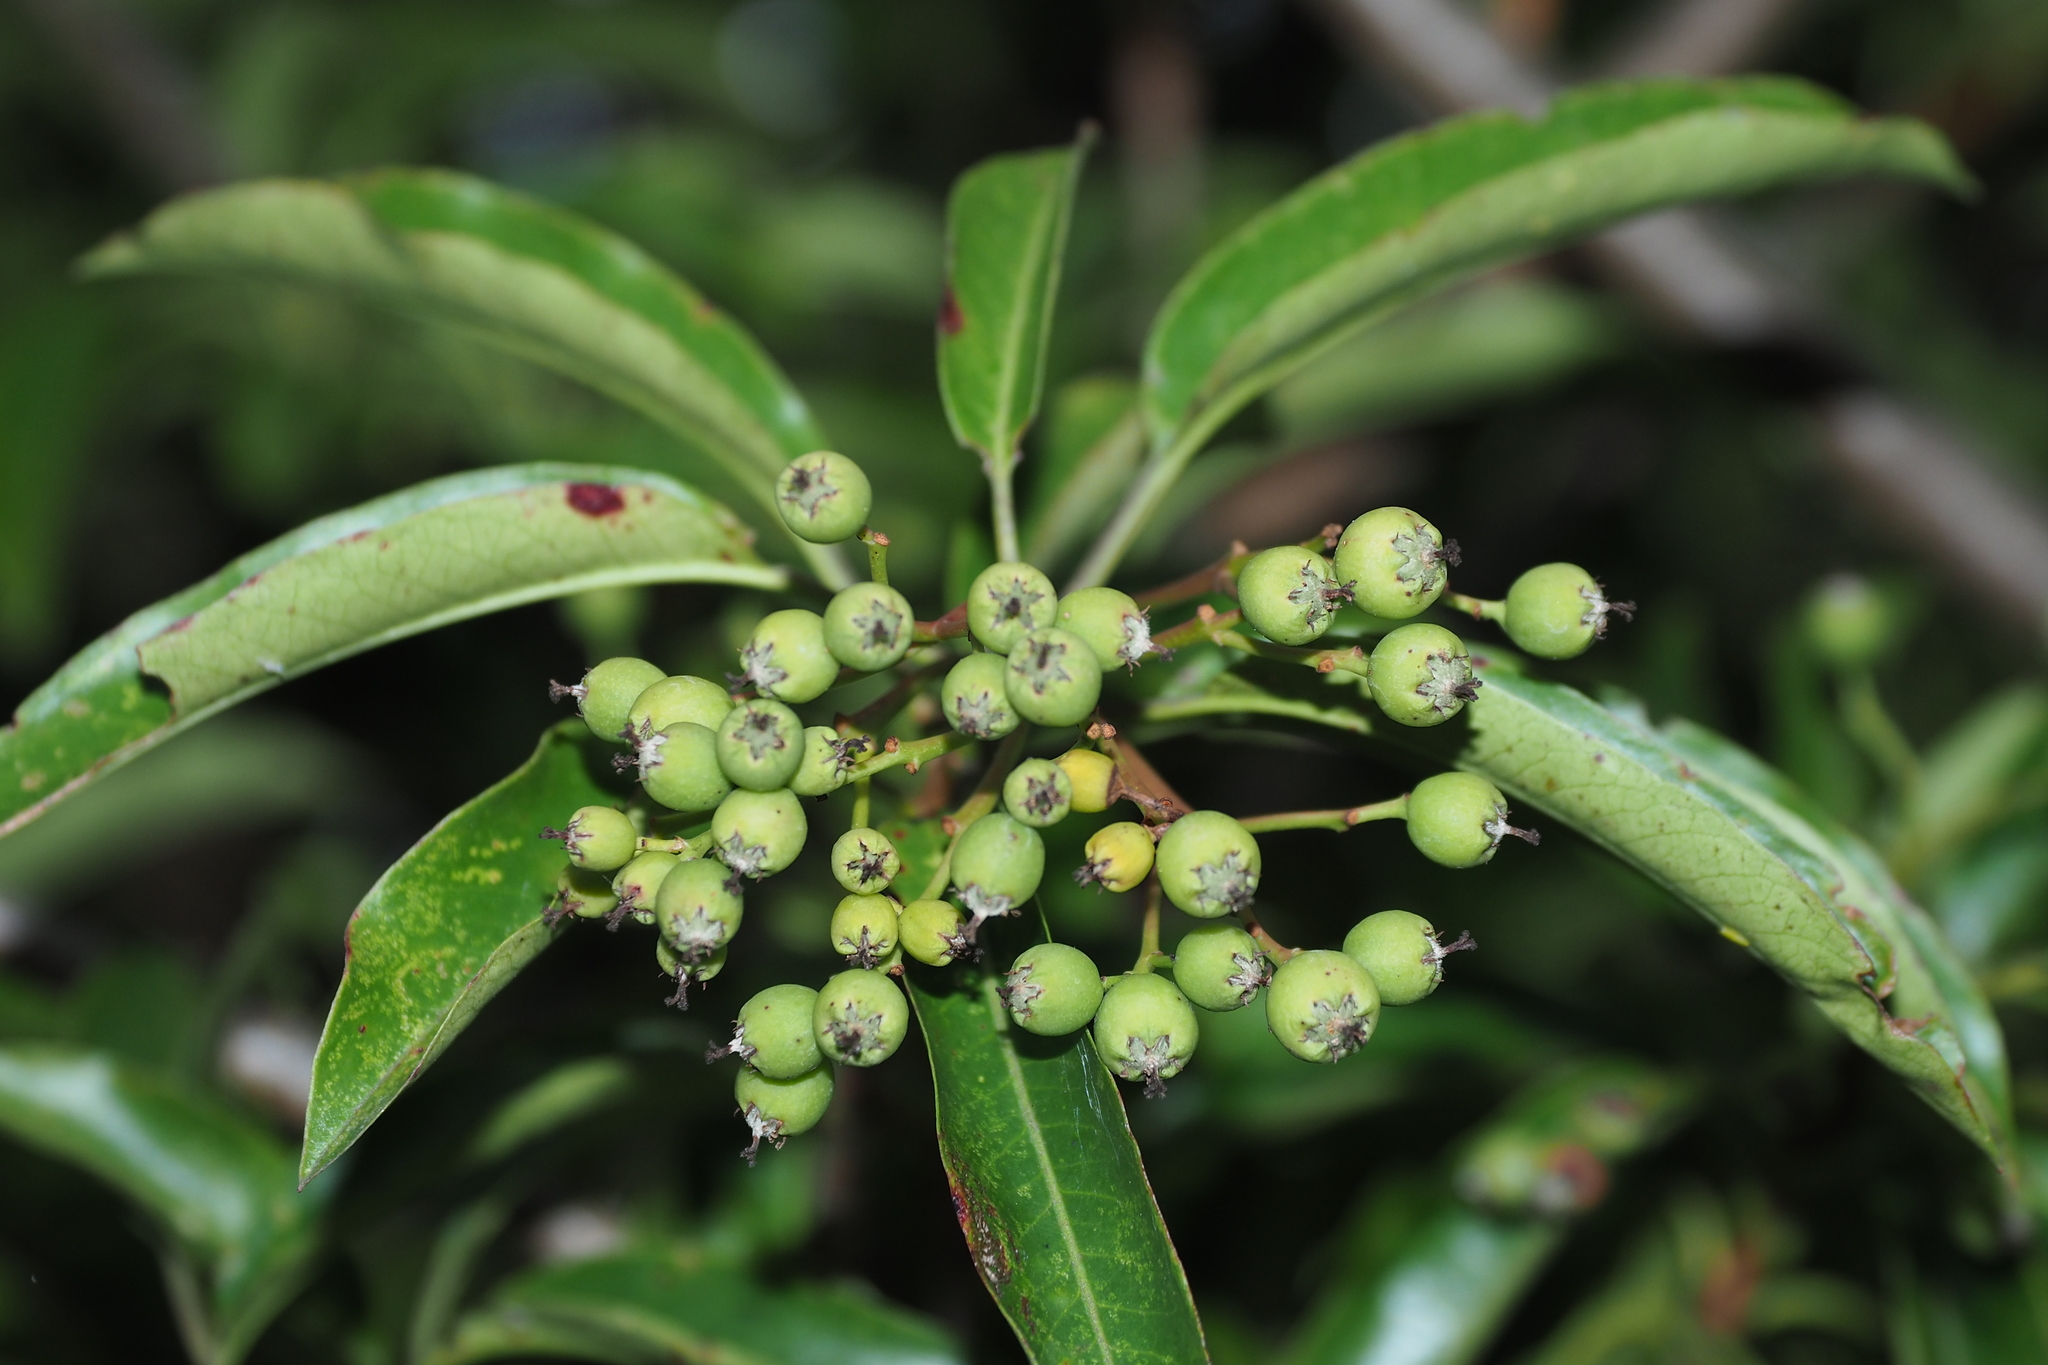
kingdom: Plantae
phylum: Tracheophyta
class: Magnoliopsida
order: Rosales
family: Rosaceae
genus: Stranvaesia
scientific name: Stranvaesia davidiana
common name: Chinese photinia
